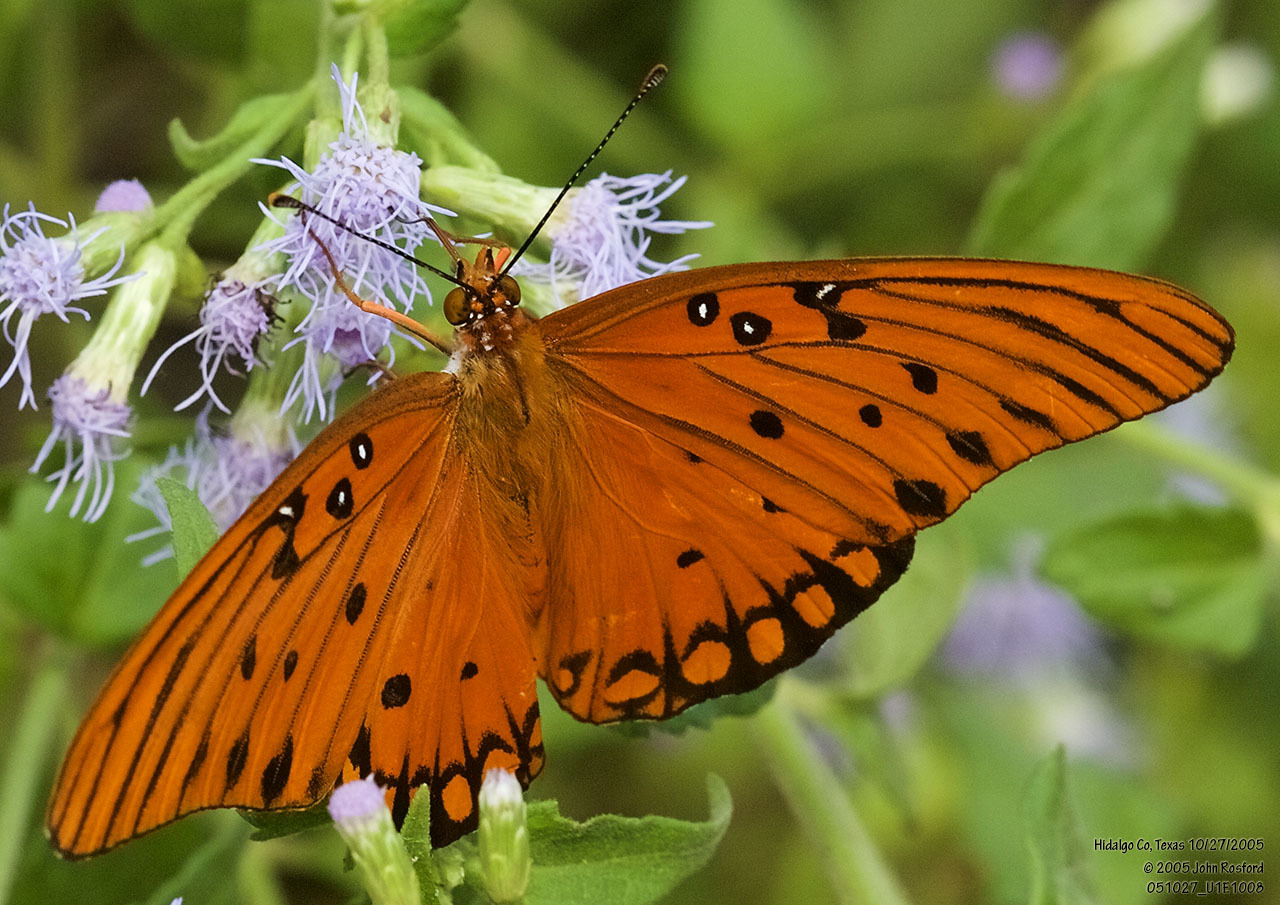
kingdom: Animalia
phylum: Arthropoda
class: Insecta
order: Lepidoptera
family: Nymphalidae
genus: Dione
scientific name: Dione vanillae
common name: Gulf fritillary
